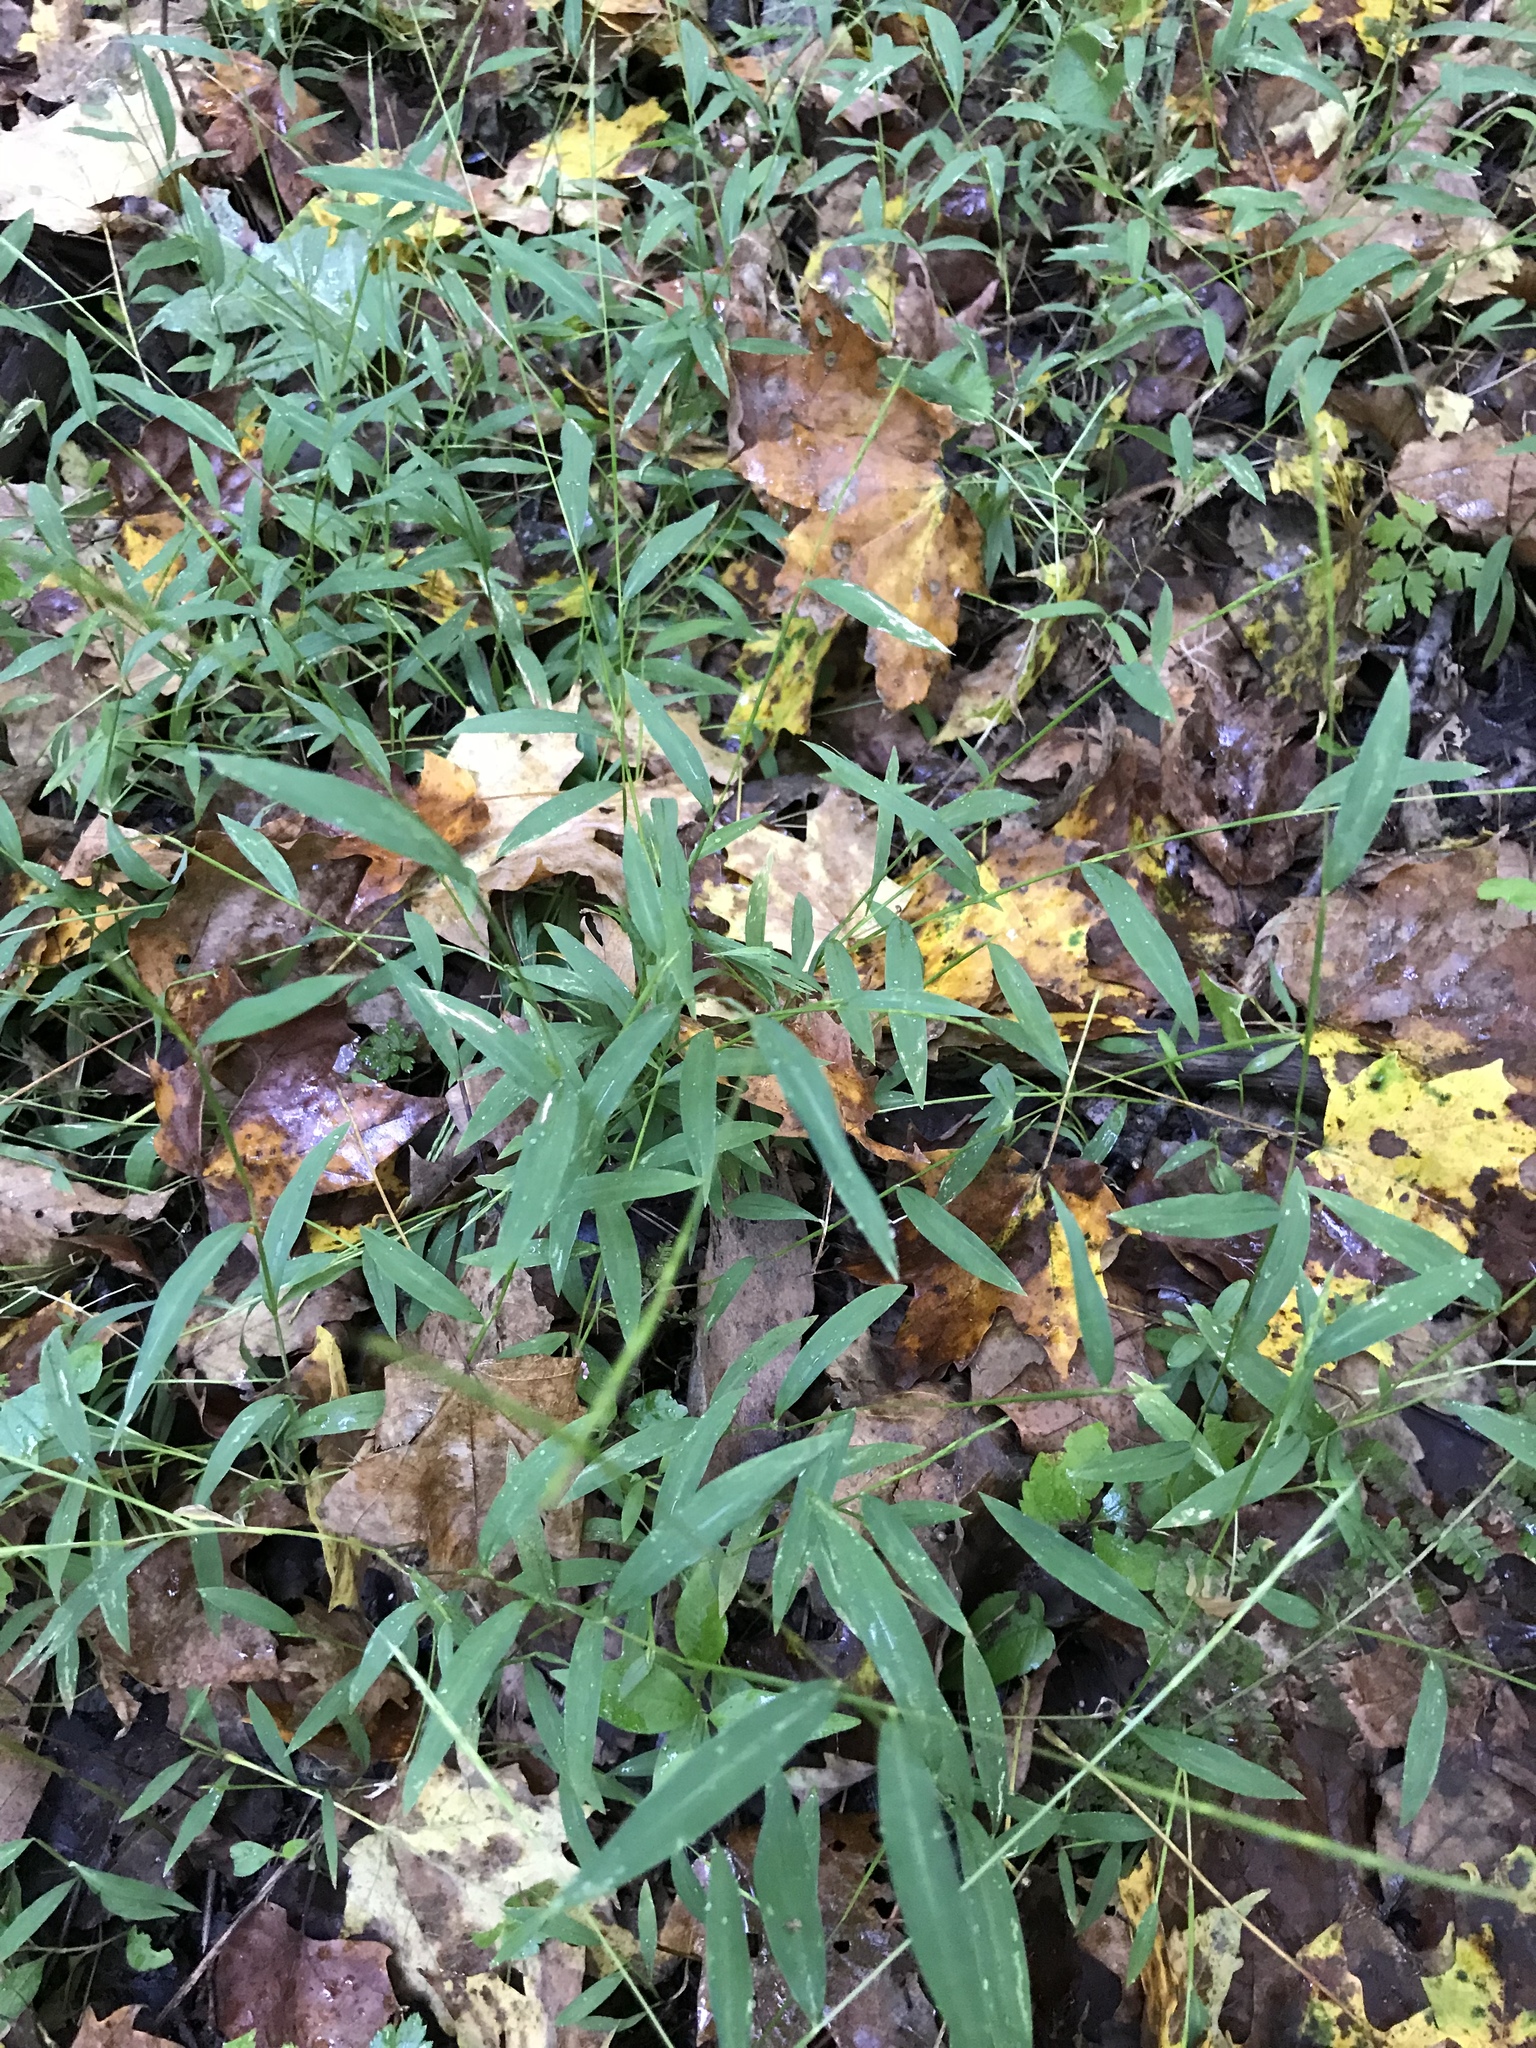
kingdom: Plantae
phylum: Tracheophyta
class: Liliopsida
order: Poales
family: Poaceae
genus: Microstegium
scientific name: Microstegium vimineum
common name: Japanese stiltgrass
